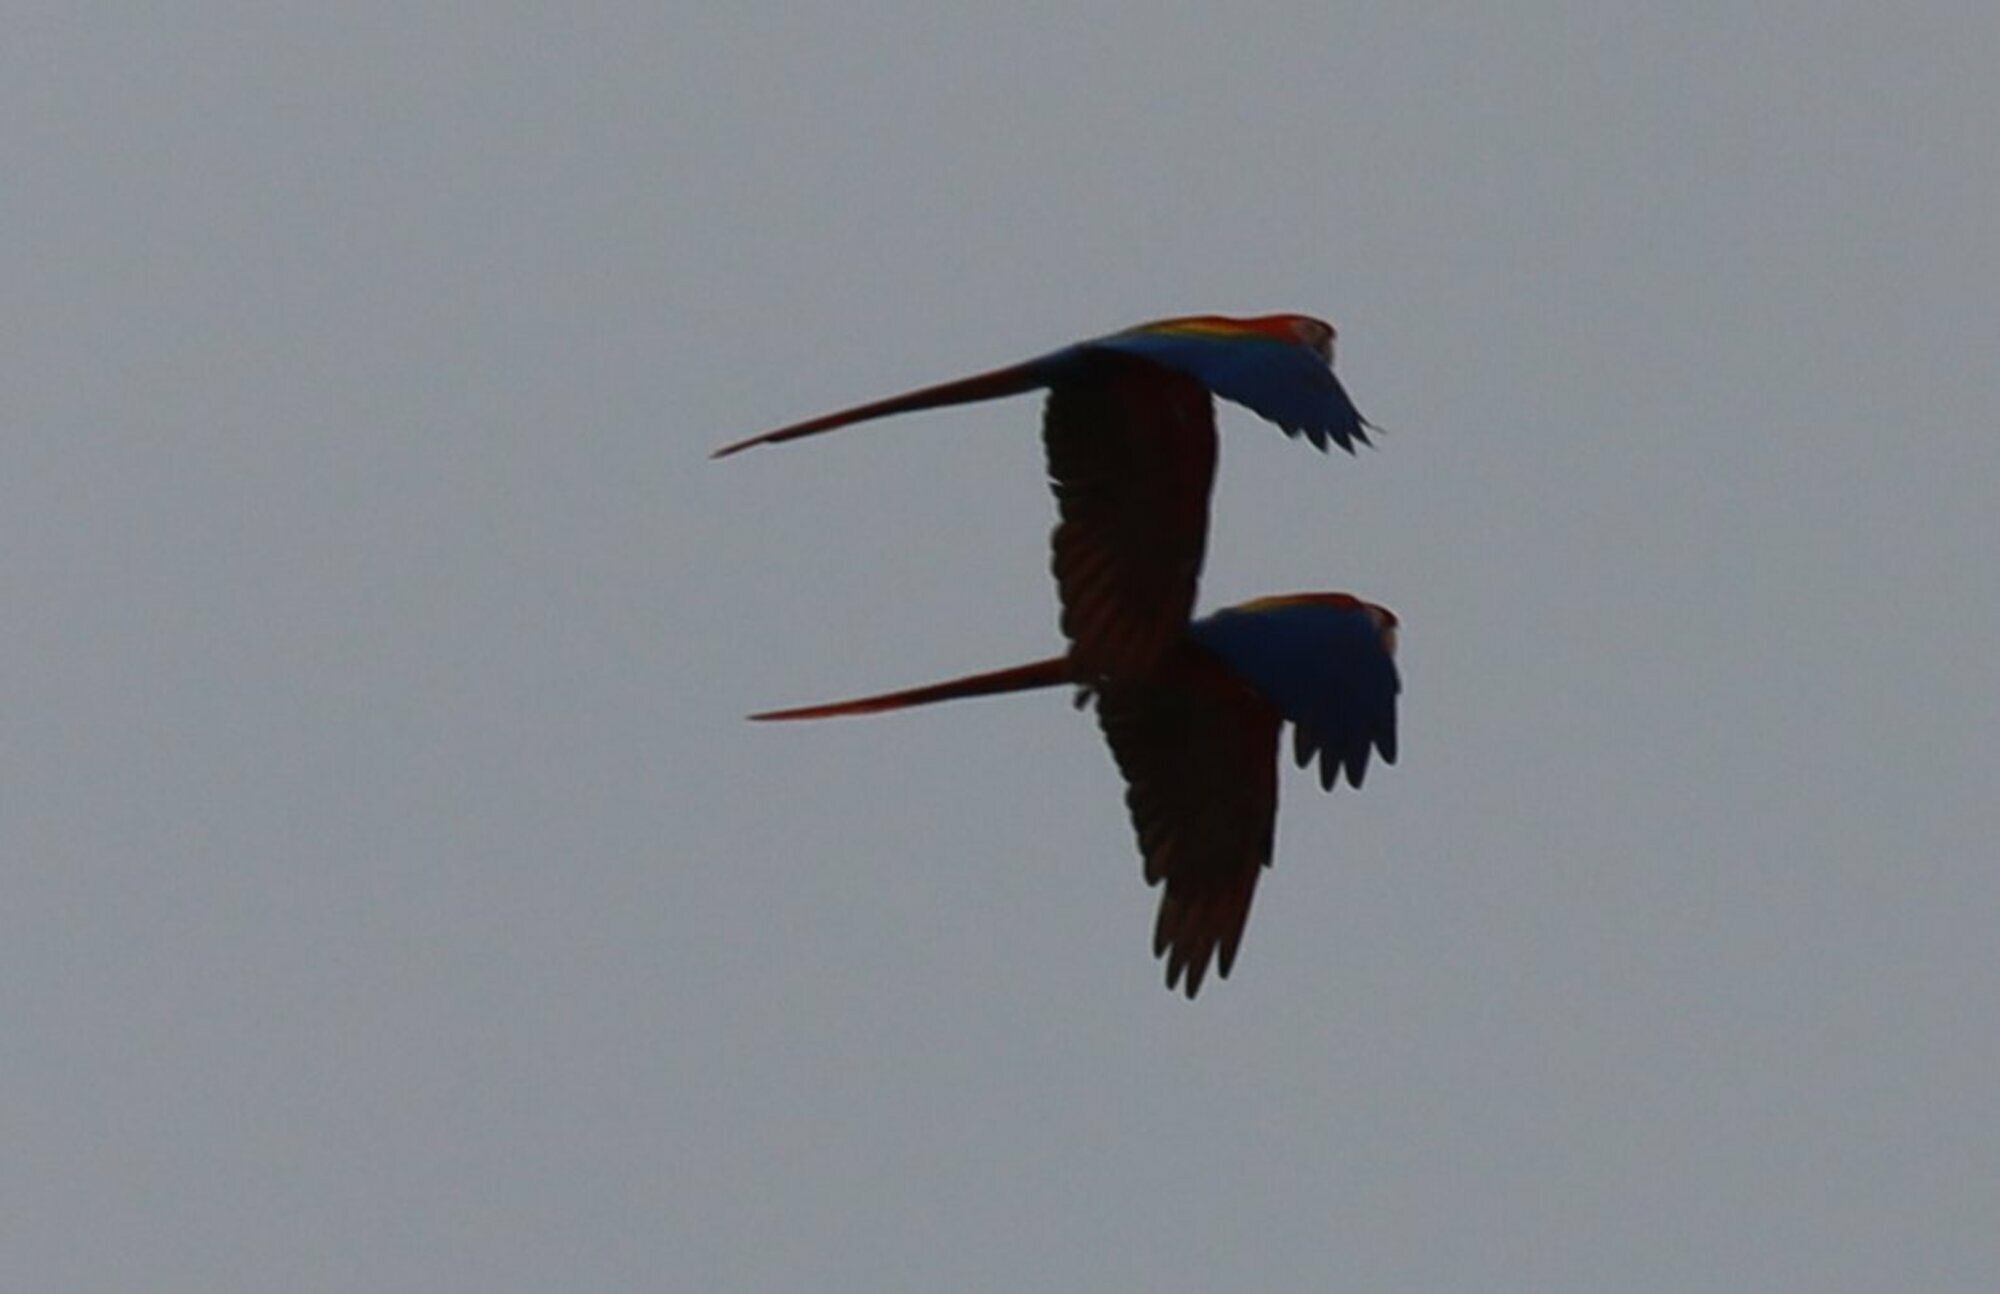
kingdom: Animalia
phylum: Chordata
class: Aves
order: Psittaciformes
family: Psittacidae
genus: Ara
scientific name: Ara macao
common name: Scarlet macaw
